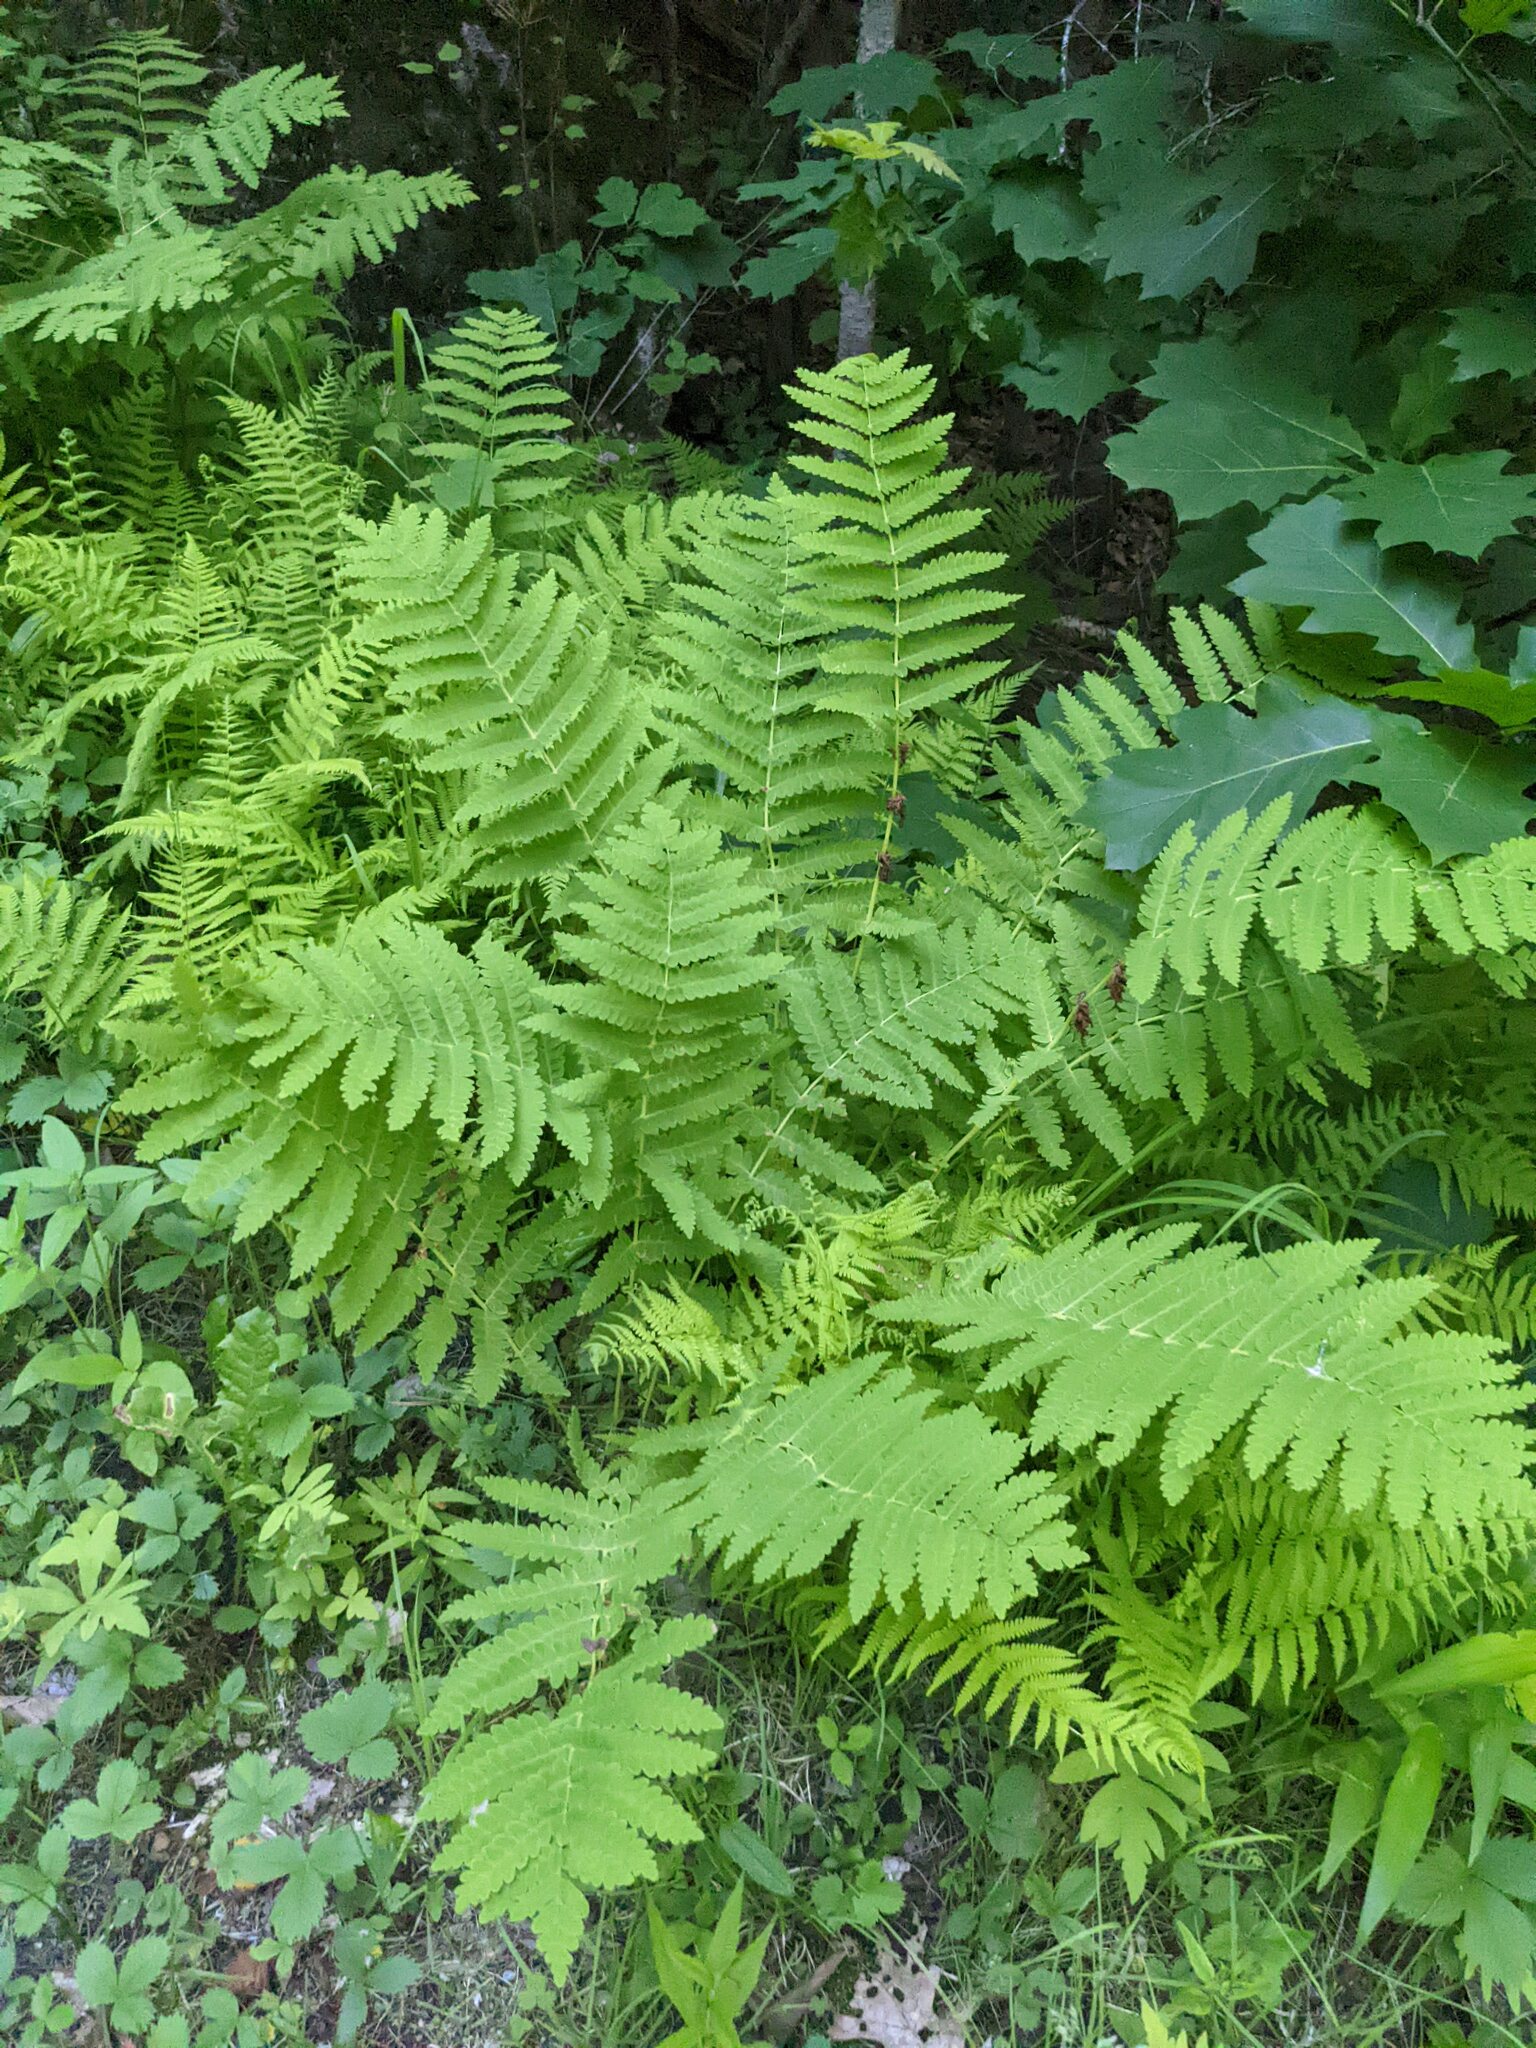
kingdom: Plantae
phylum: Tracheophyta
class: Polypodiopsida
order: Osmundales
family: Osmundaceae
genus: Claytosmunda
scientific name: Claytosmunda claytoniana
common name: Clayton's fern
